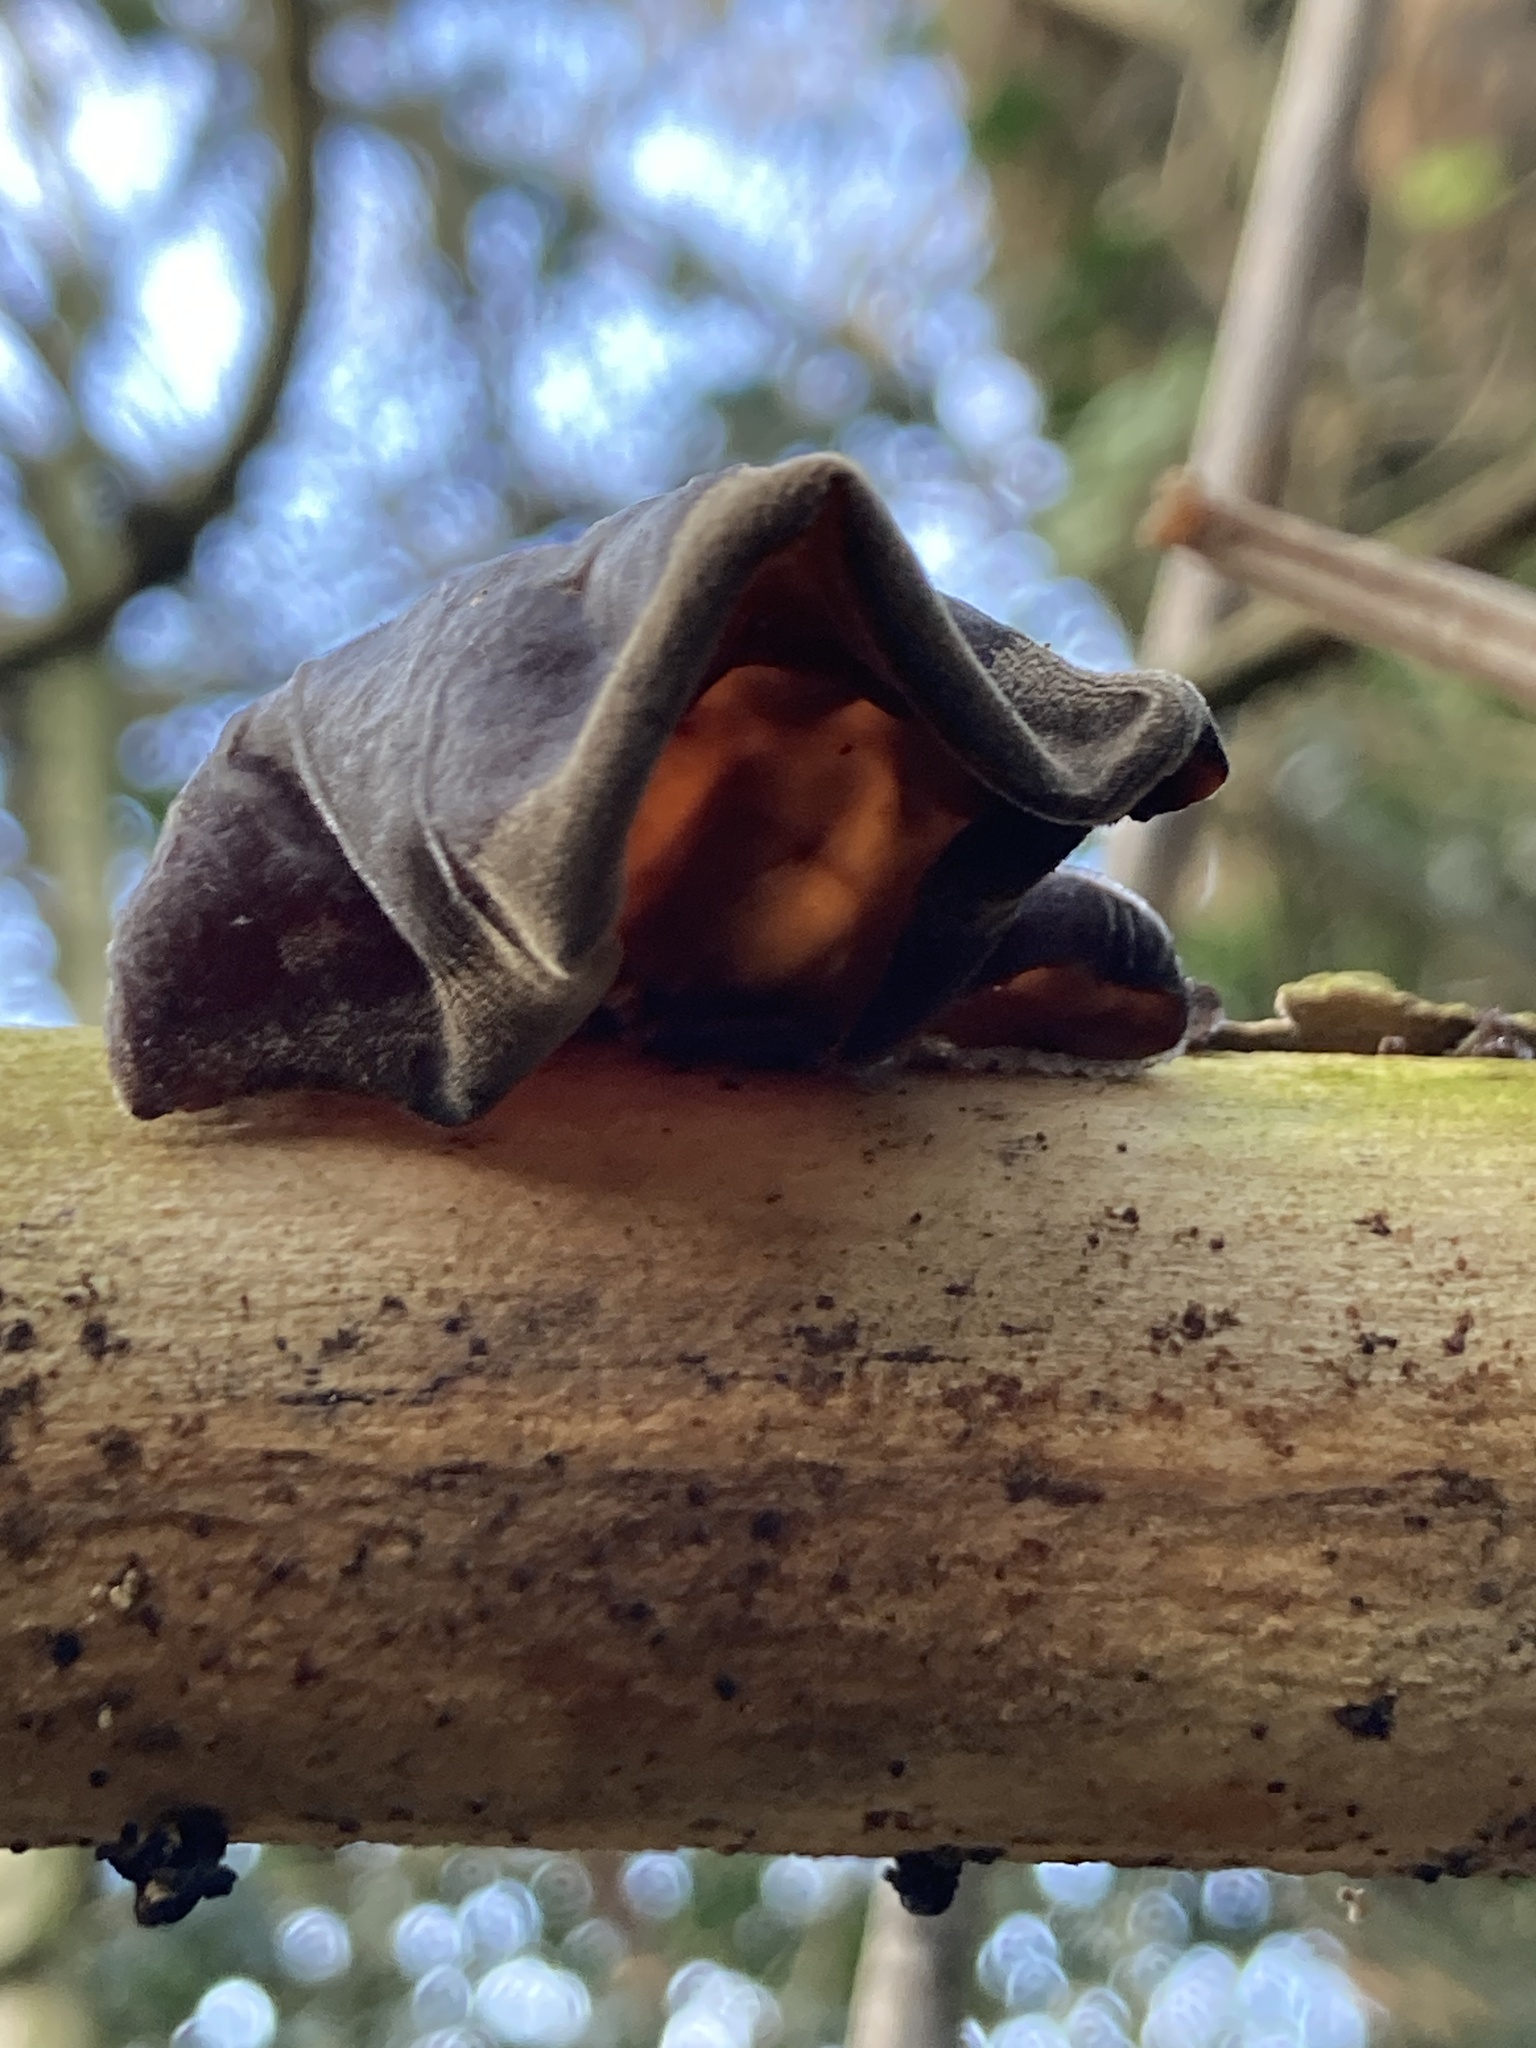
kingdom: Fungi
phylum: Basidiomycota
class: Agaricomycetes
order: Auriculariales
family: Auriculariaceae
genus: Auricularia
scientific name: Auricularia auricula-judae
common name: Jelly ear
